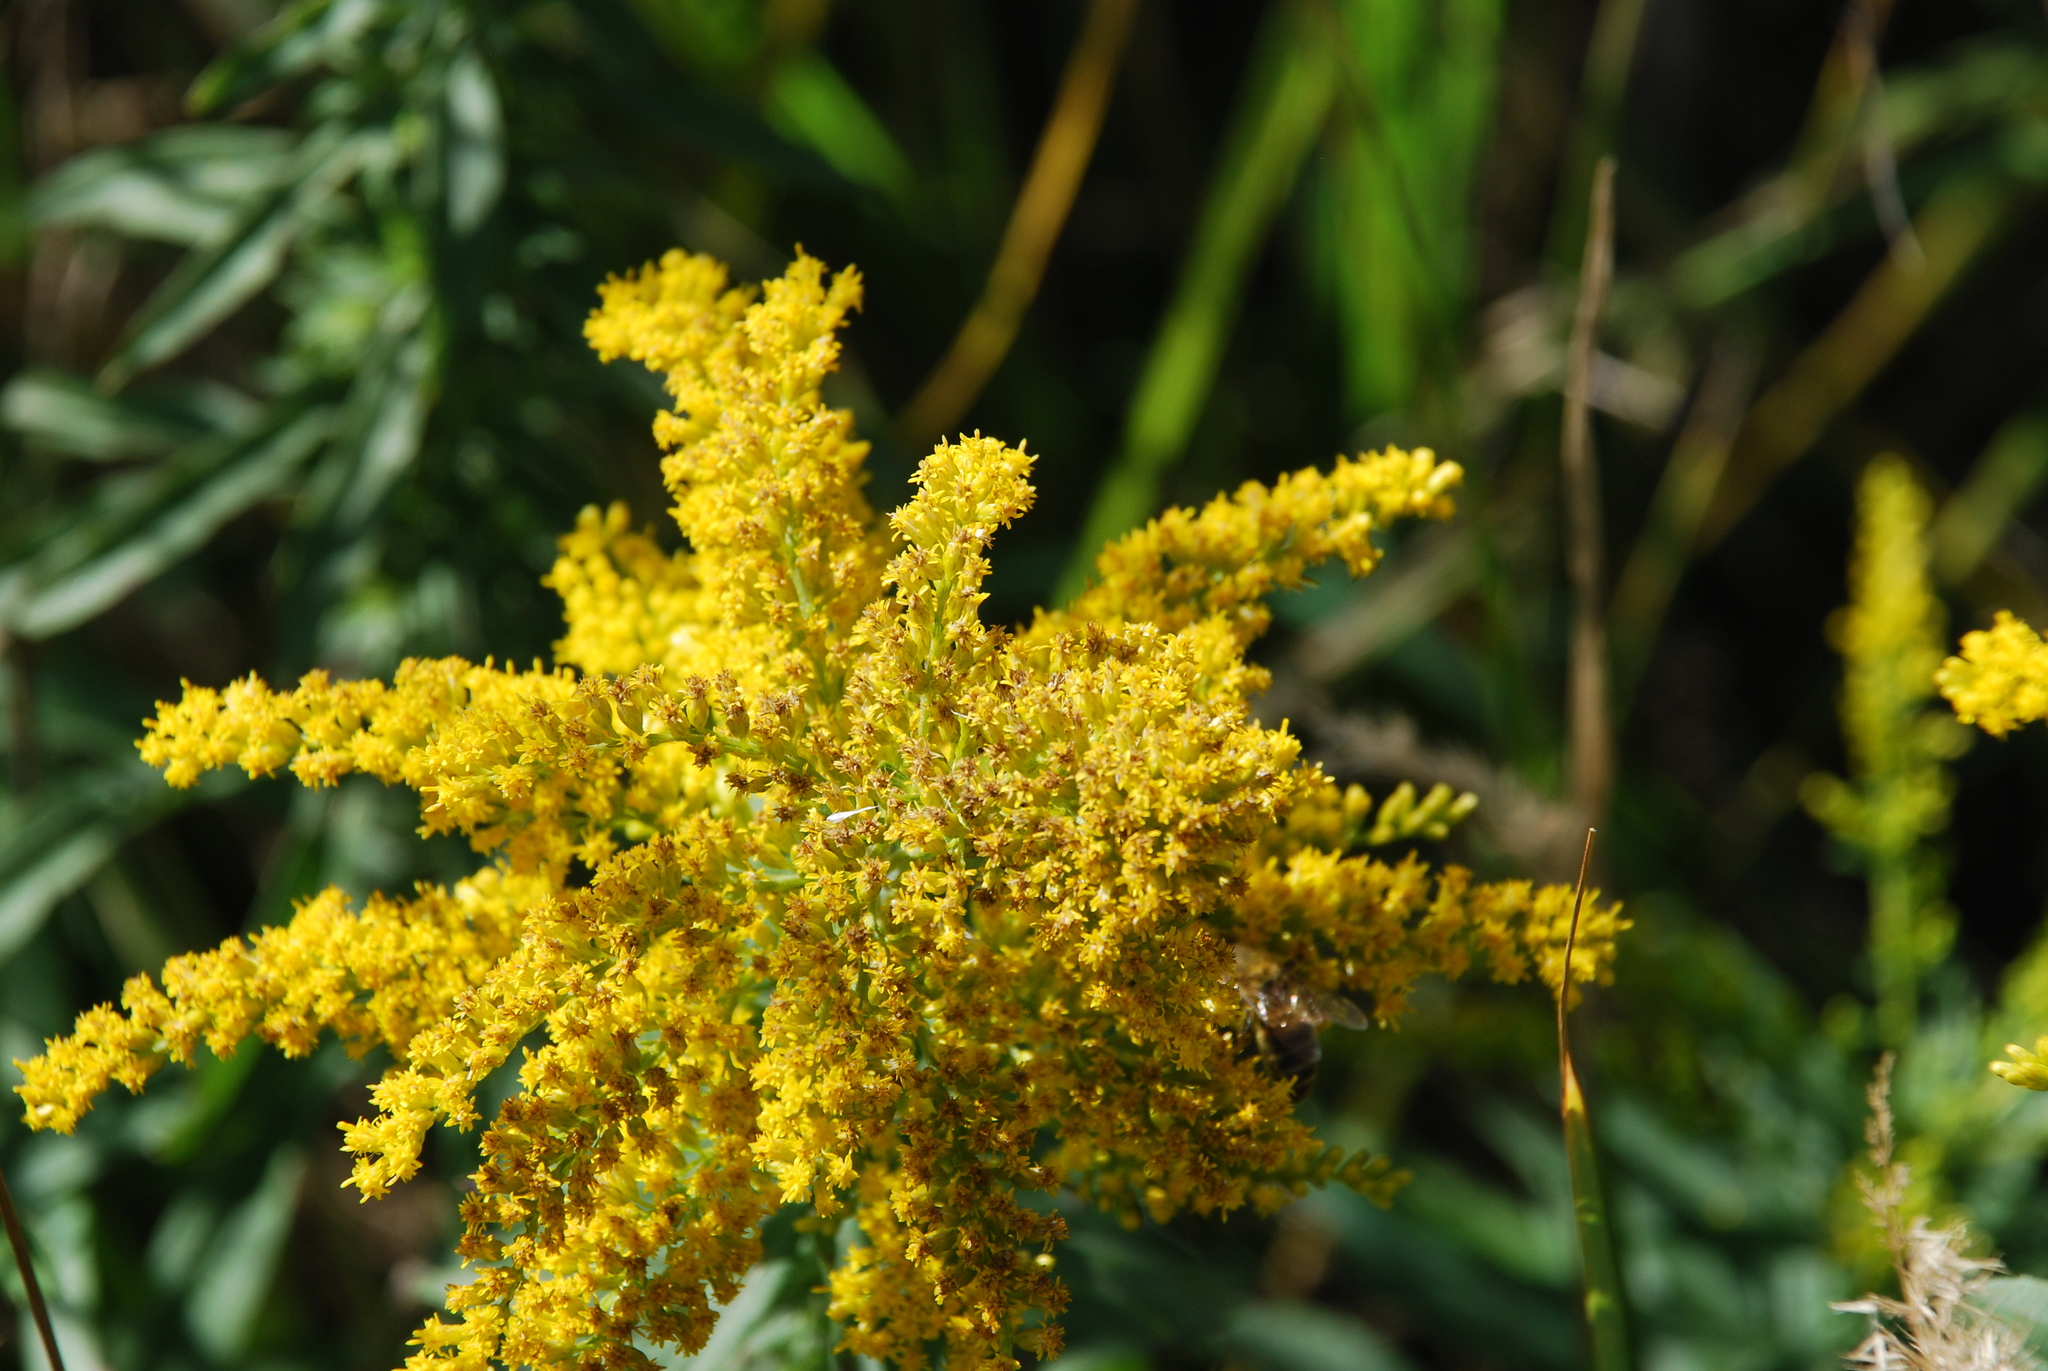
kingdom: Plantae
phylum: Tracheophyta
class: Magnoliopsida
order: Asterales
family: Asteraceae
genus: Solidago
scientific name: Solidago canadensis
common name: Canada goldenrod
